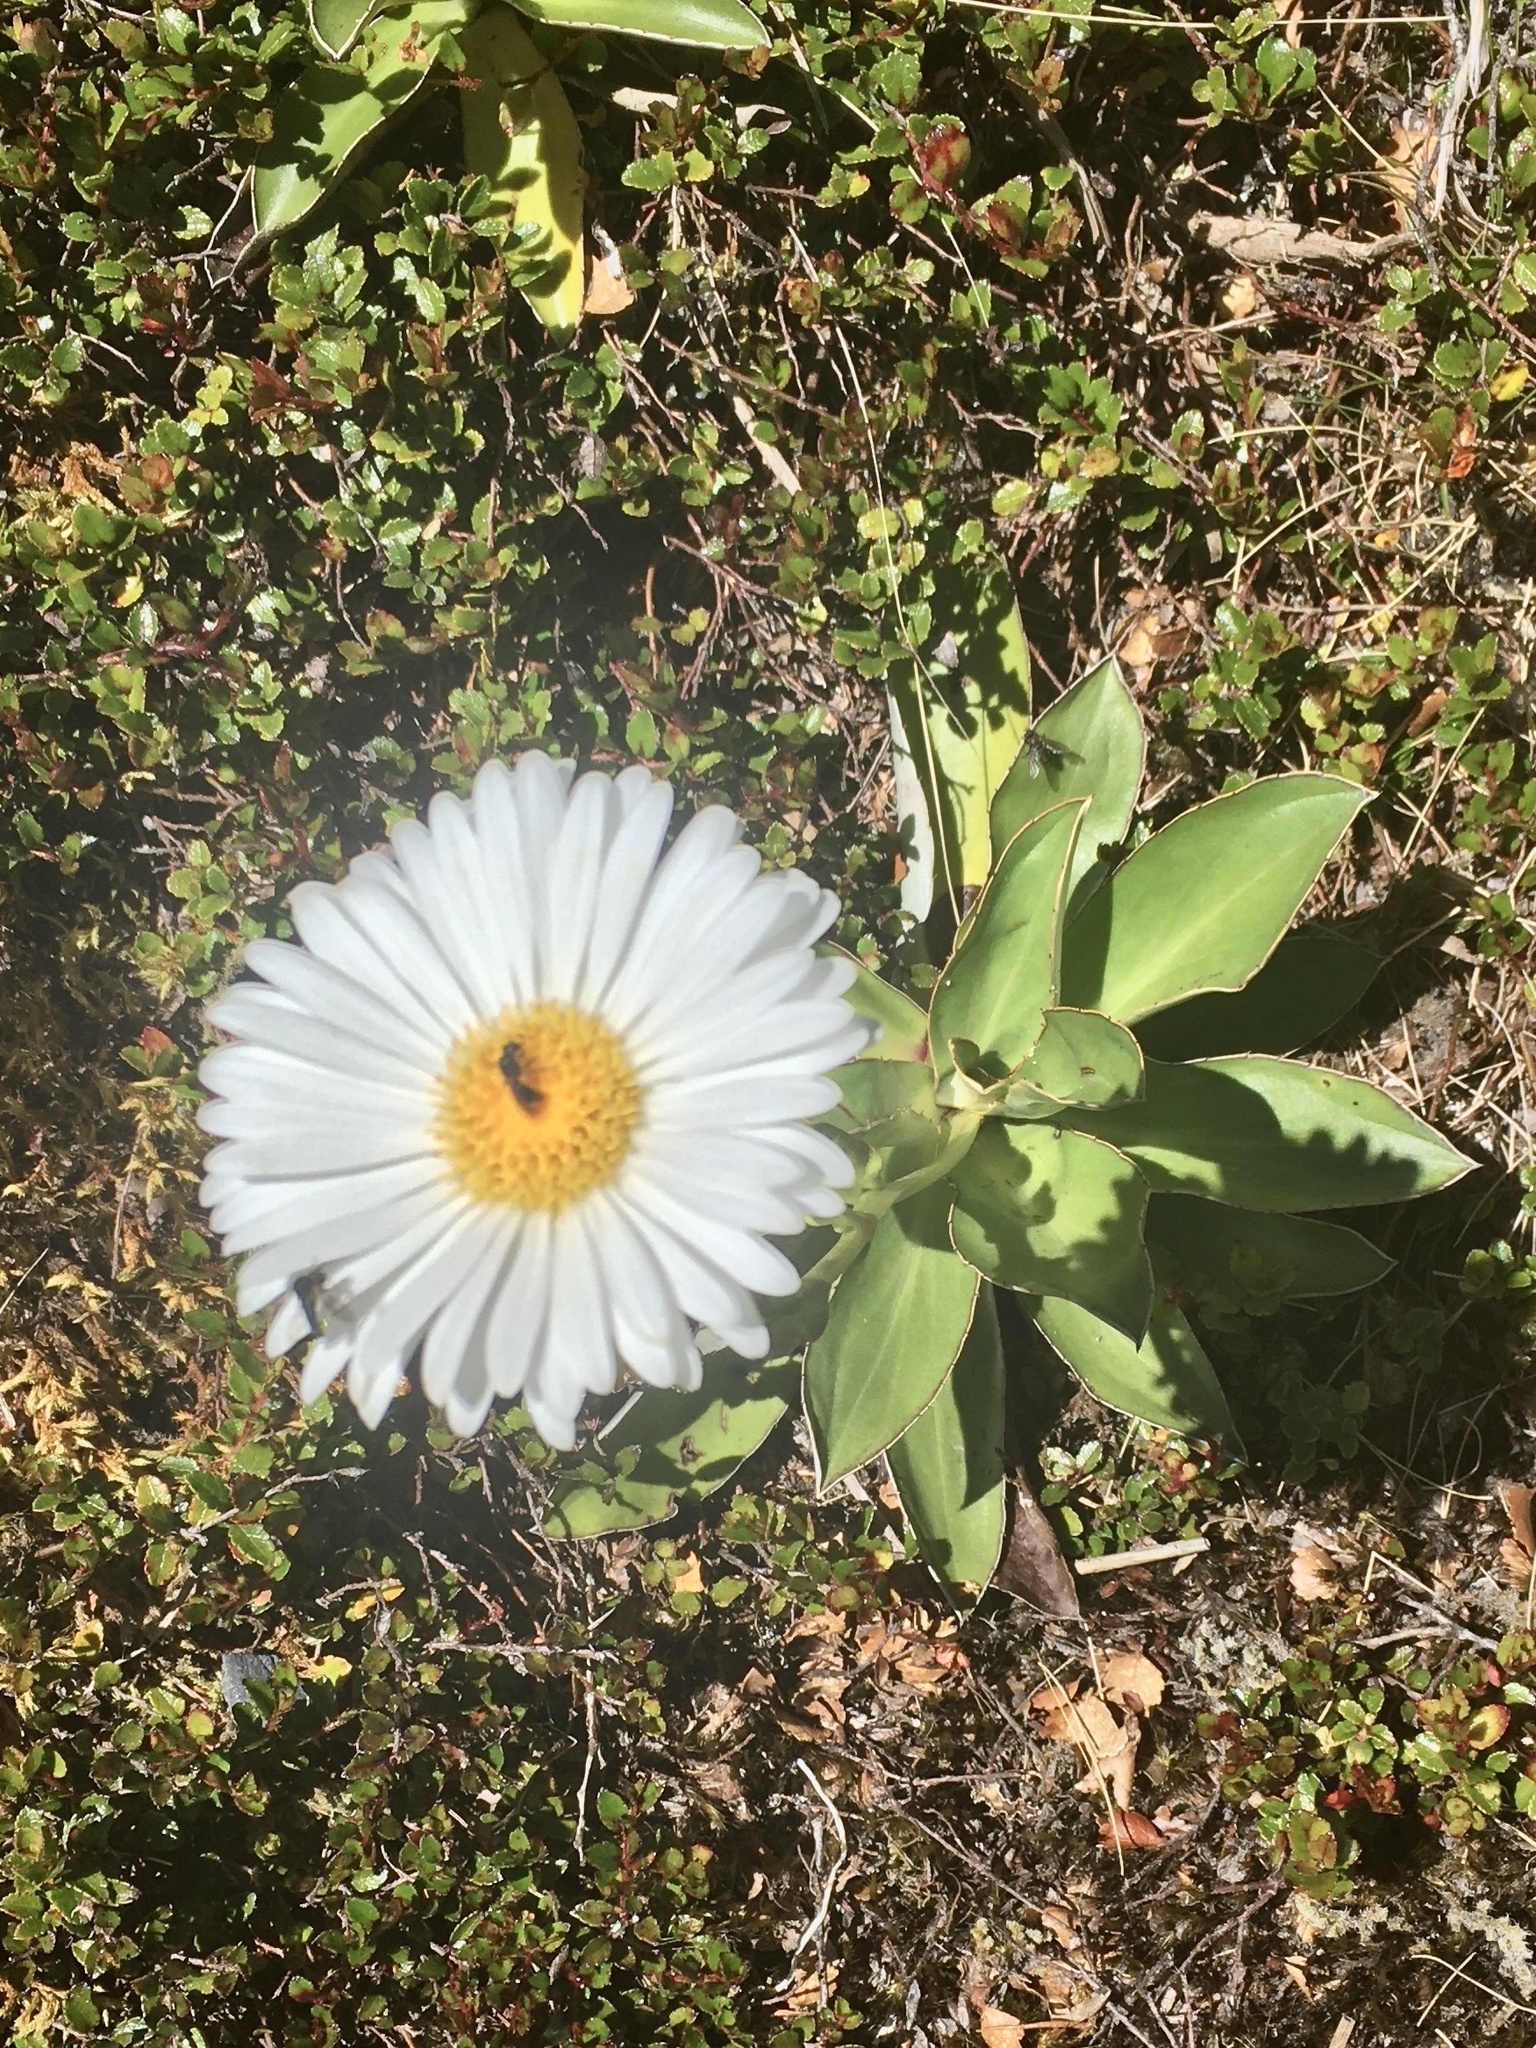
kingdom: Plantae
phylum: Tracheophyta
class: Magnoliopsida
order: Asterales
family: Asteraceae
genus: Celmisia
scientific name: Celmisia dallii
